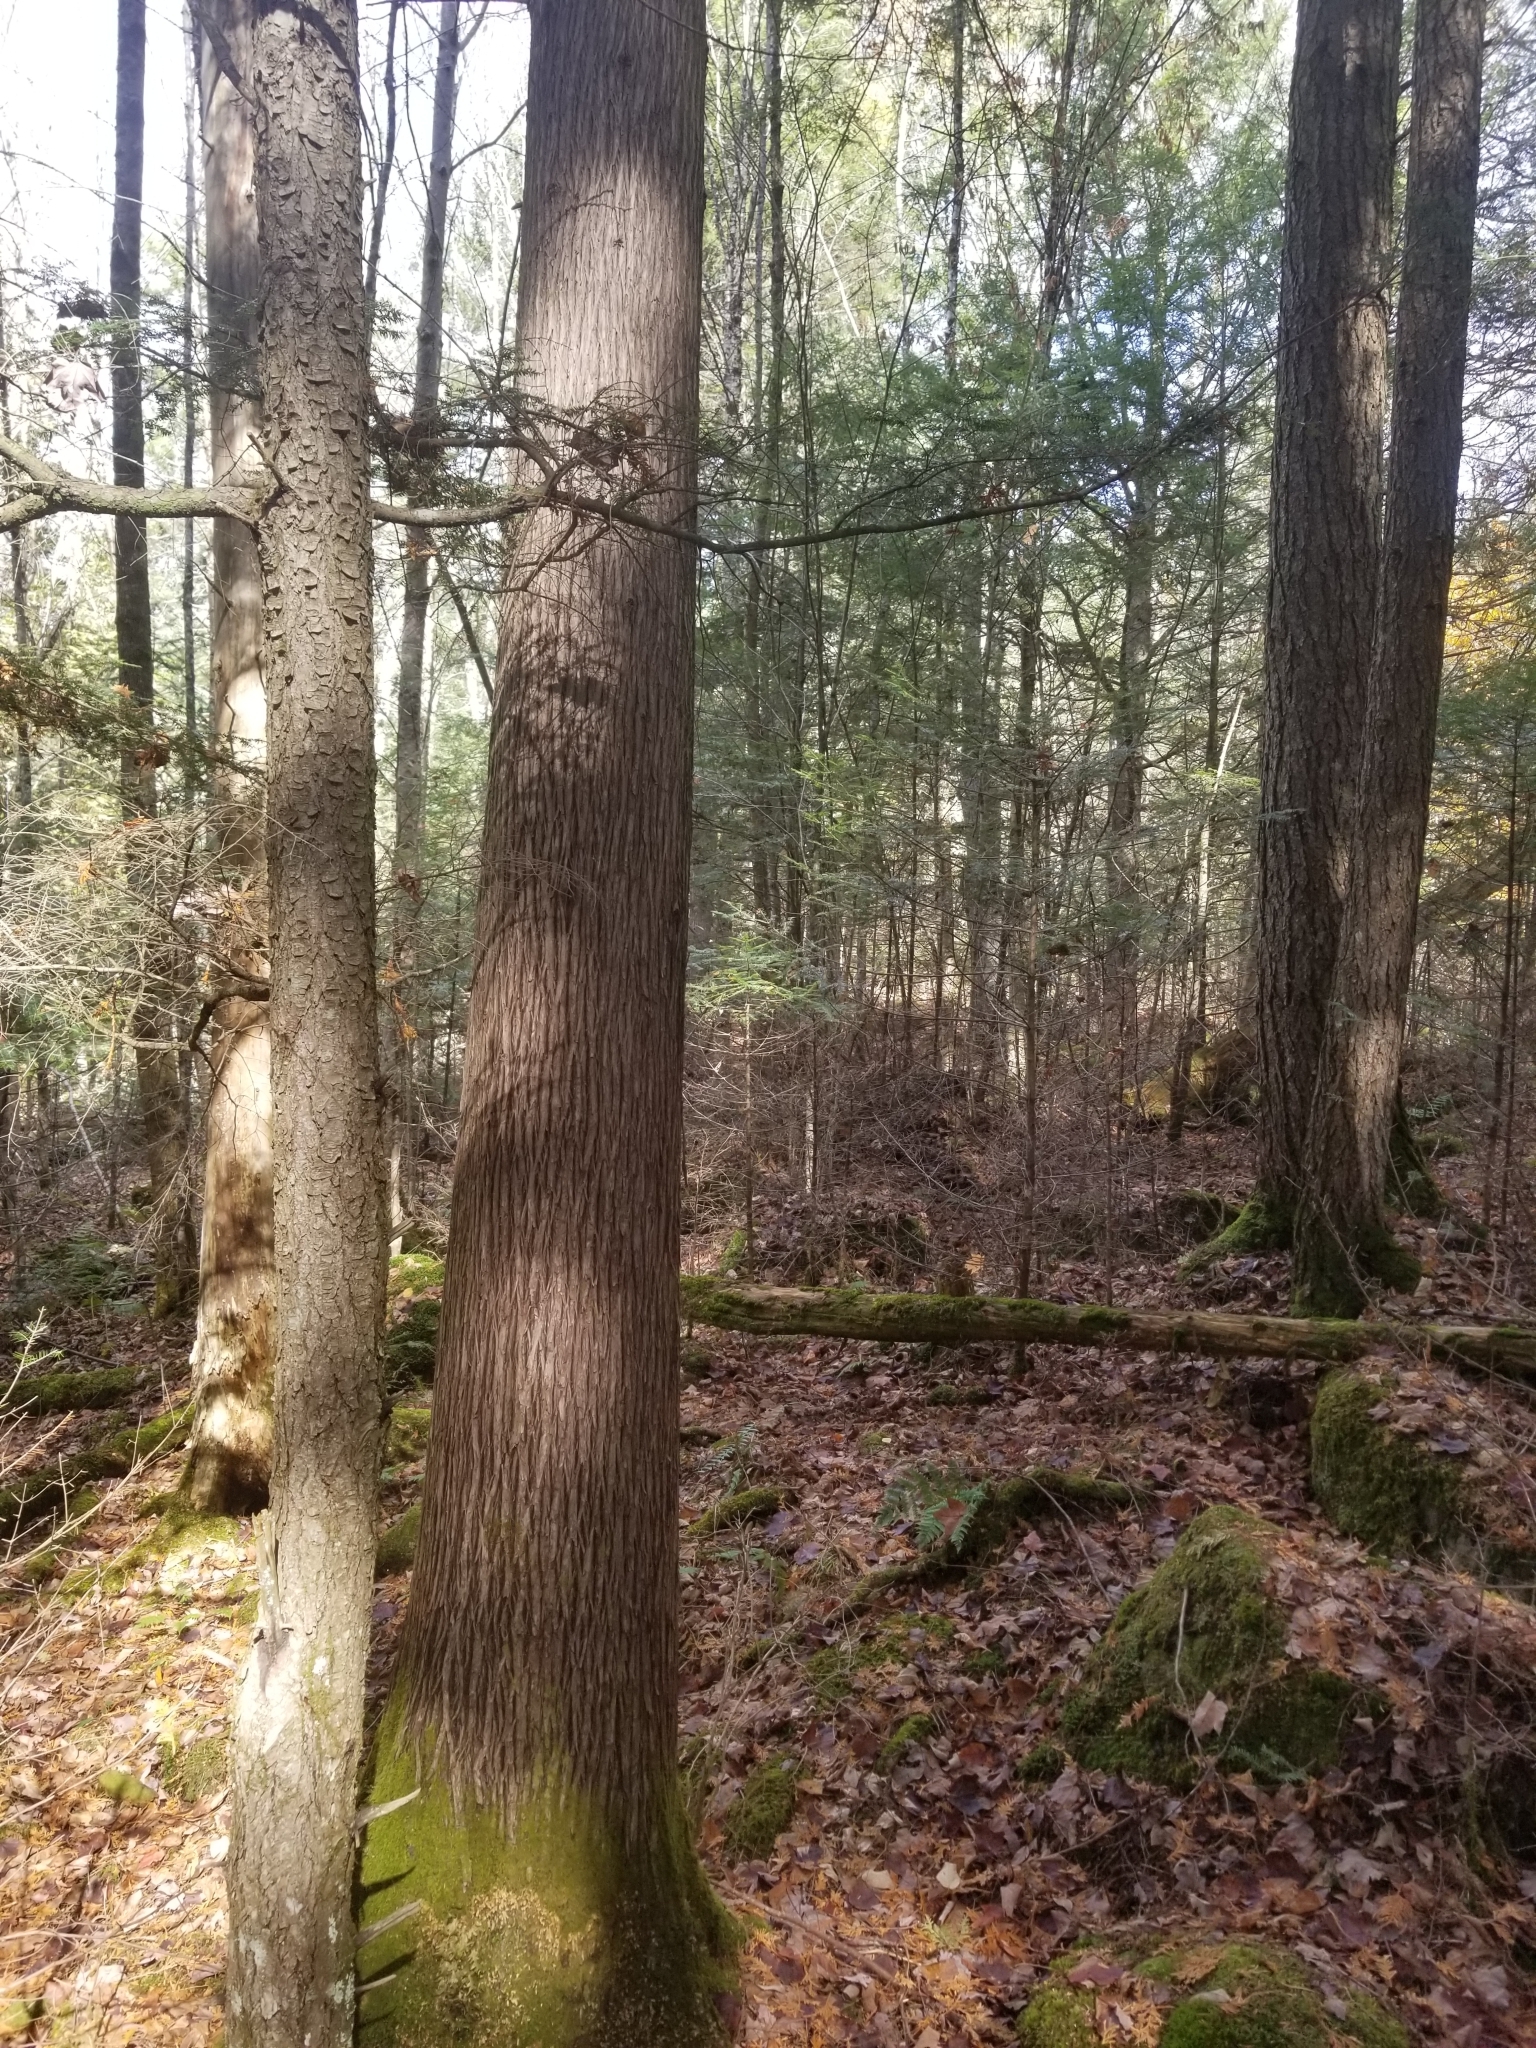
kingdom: Plantae
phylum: Tracheophyta
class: Pinopsida
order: Pinales
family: Cupressaceae
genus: Thuja
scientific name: Thuja occidentalis
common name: Northern white-cedar
